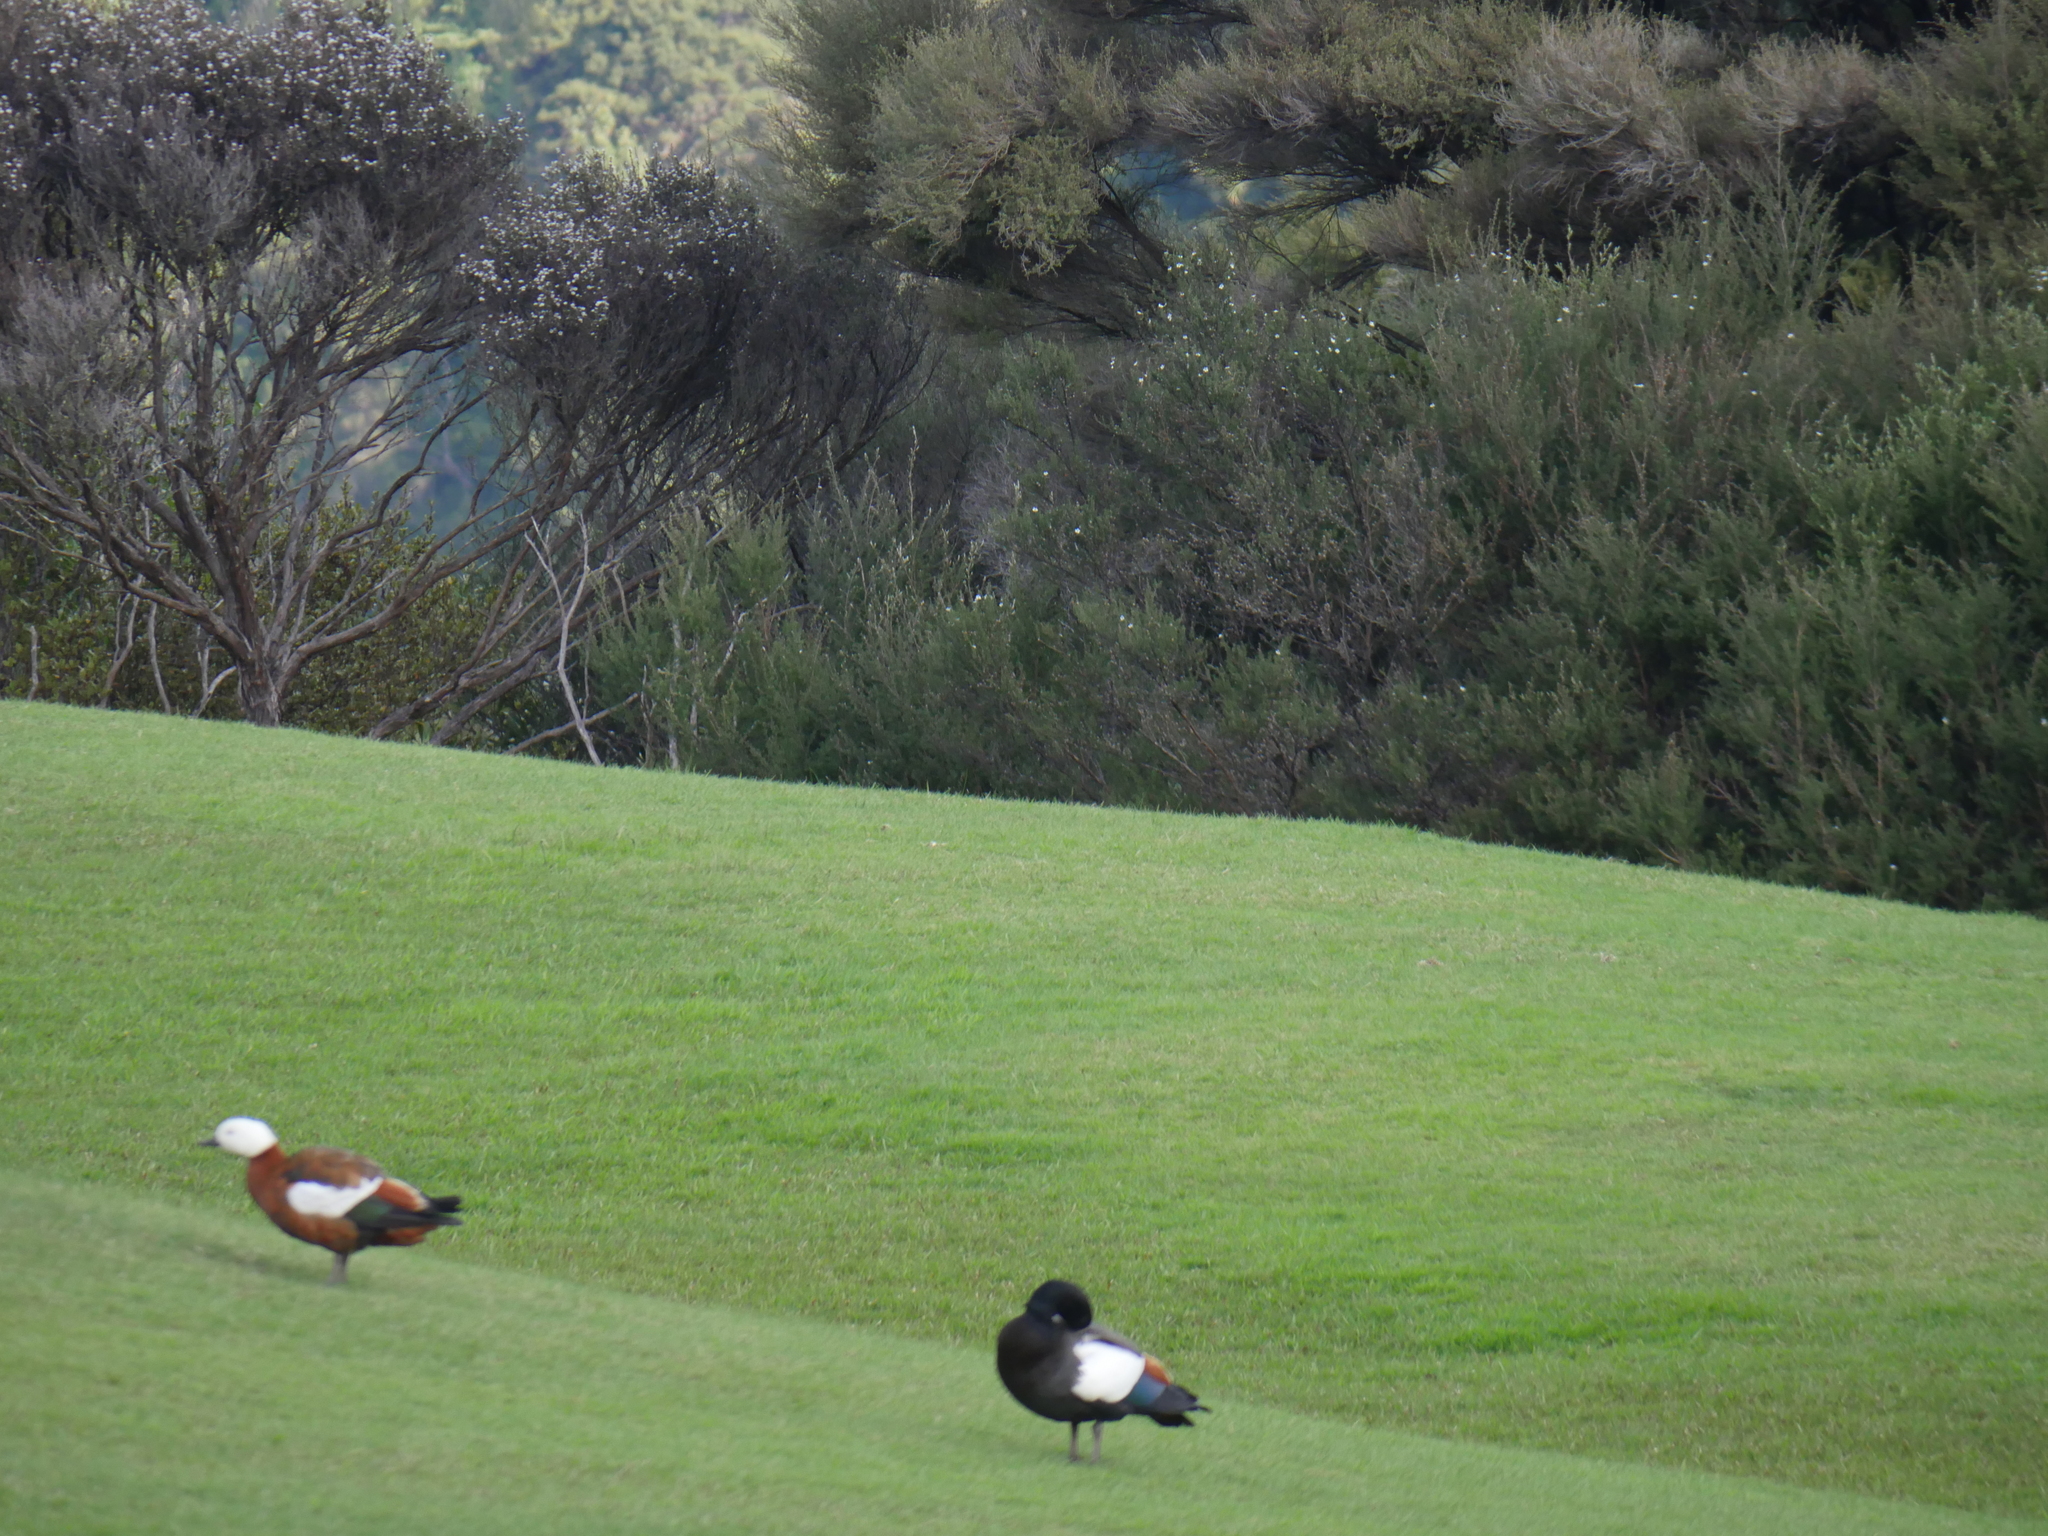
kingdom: Animalia
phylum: Chordata
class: Aves
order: Anseriformes
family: Anatidae
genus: Tadorna
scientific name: Tadorna variegata
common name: Paradise shelduck
